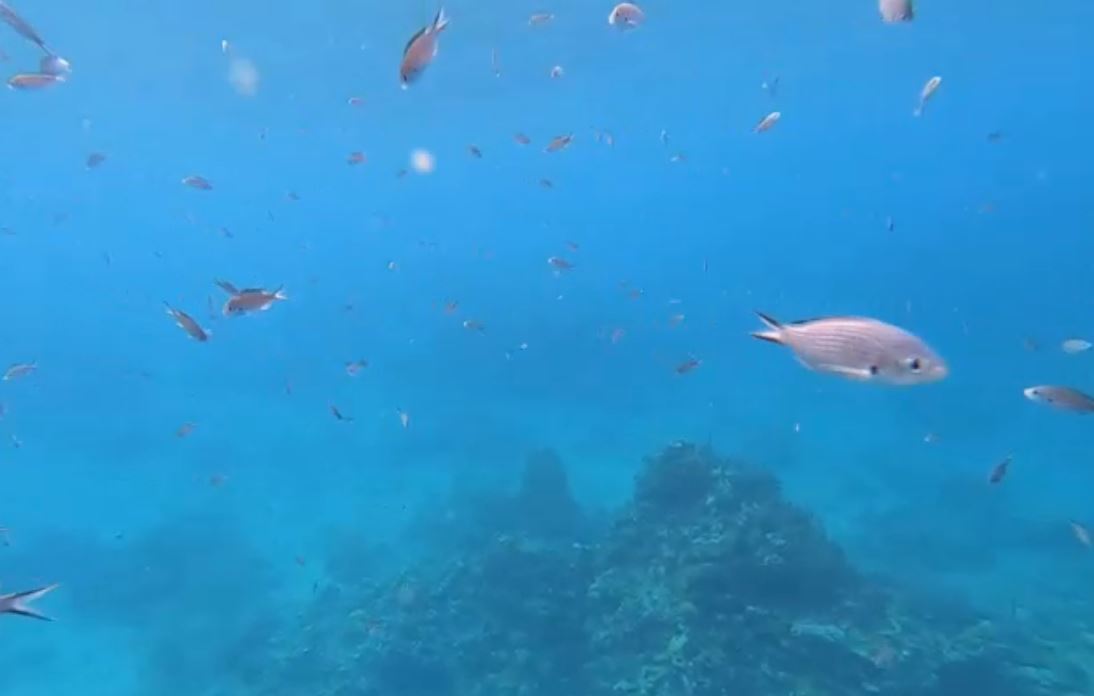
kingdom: Animalia
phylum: Chordata
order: Perciformes
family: Pomacentridae
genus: Chromis
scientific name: Chromis multilineata
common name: Brown chromis
